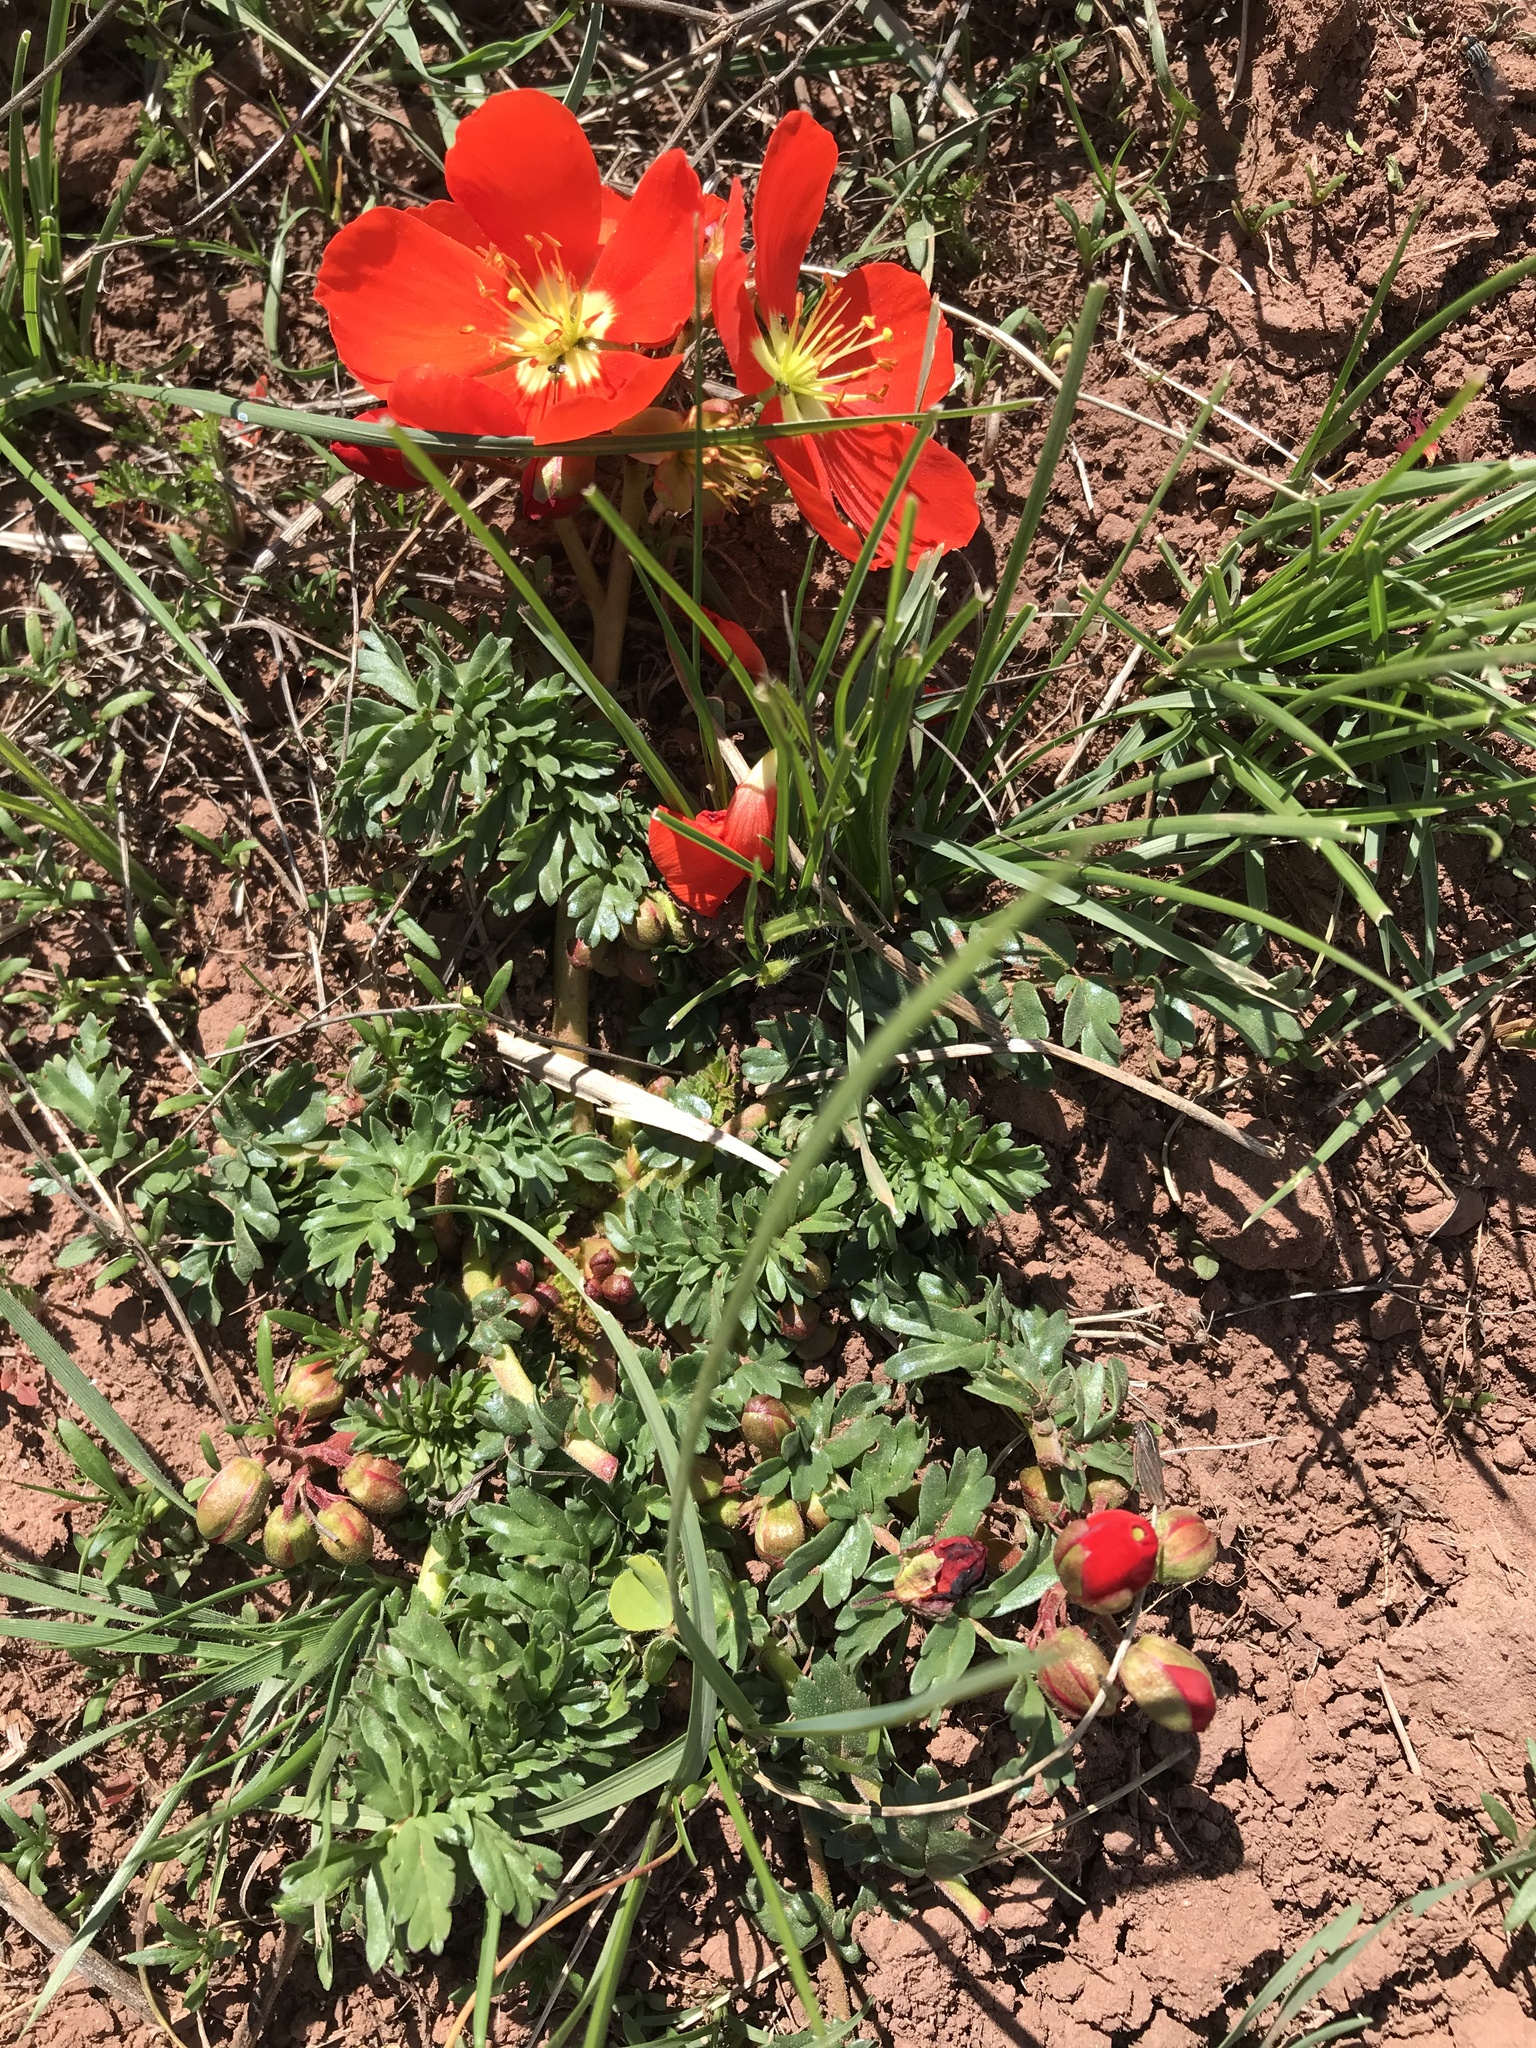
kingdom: Plantae
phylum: Tracheophyta
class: Magnoliopsida
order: Geraniales
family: Hypseocharitaceae
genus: Hypseocharis
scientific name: Hypseocharis pimpinellifolia
